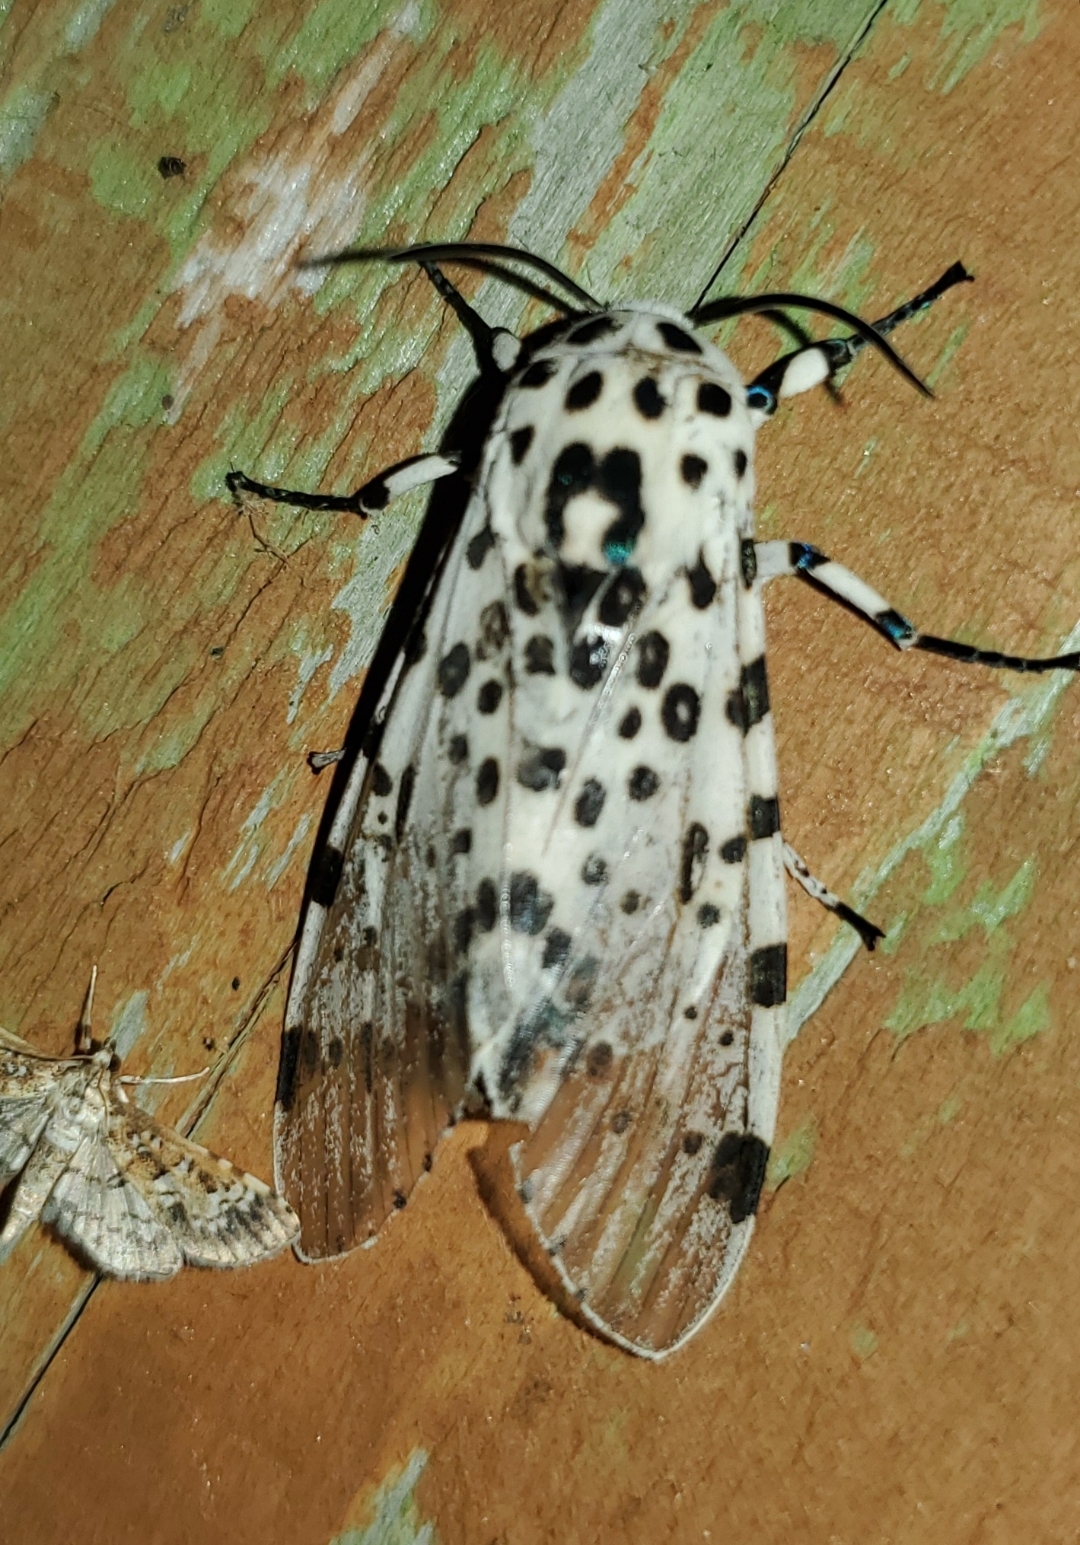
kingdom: Animalia
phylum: Arthropoda
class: Insecta
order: Lepidoptera
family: Erebidae
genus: Hypercompe
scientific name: Hypercompe scribonia
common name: Giant leopard moth
